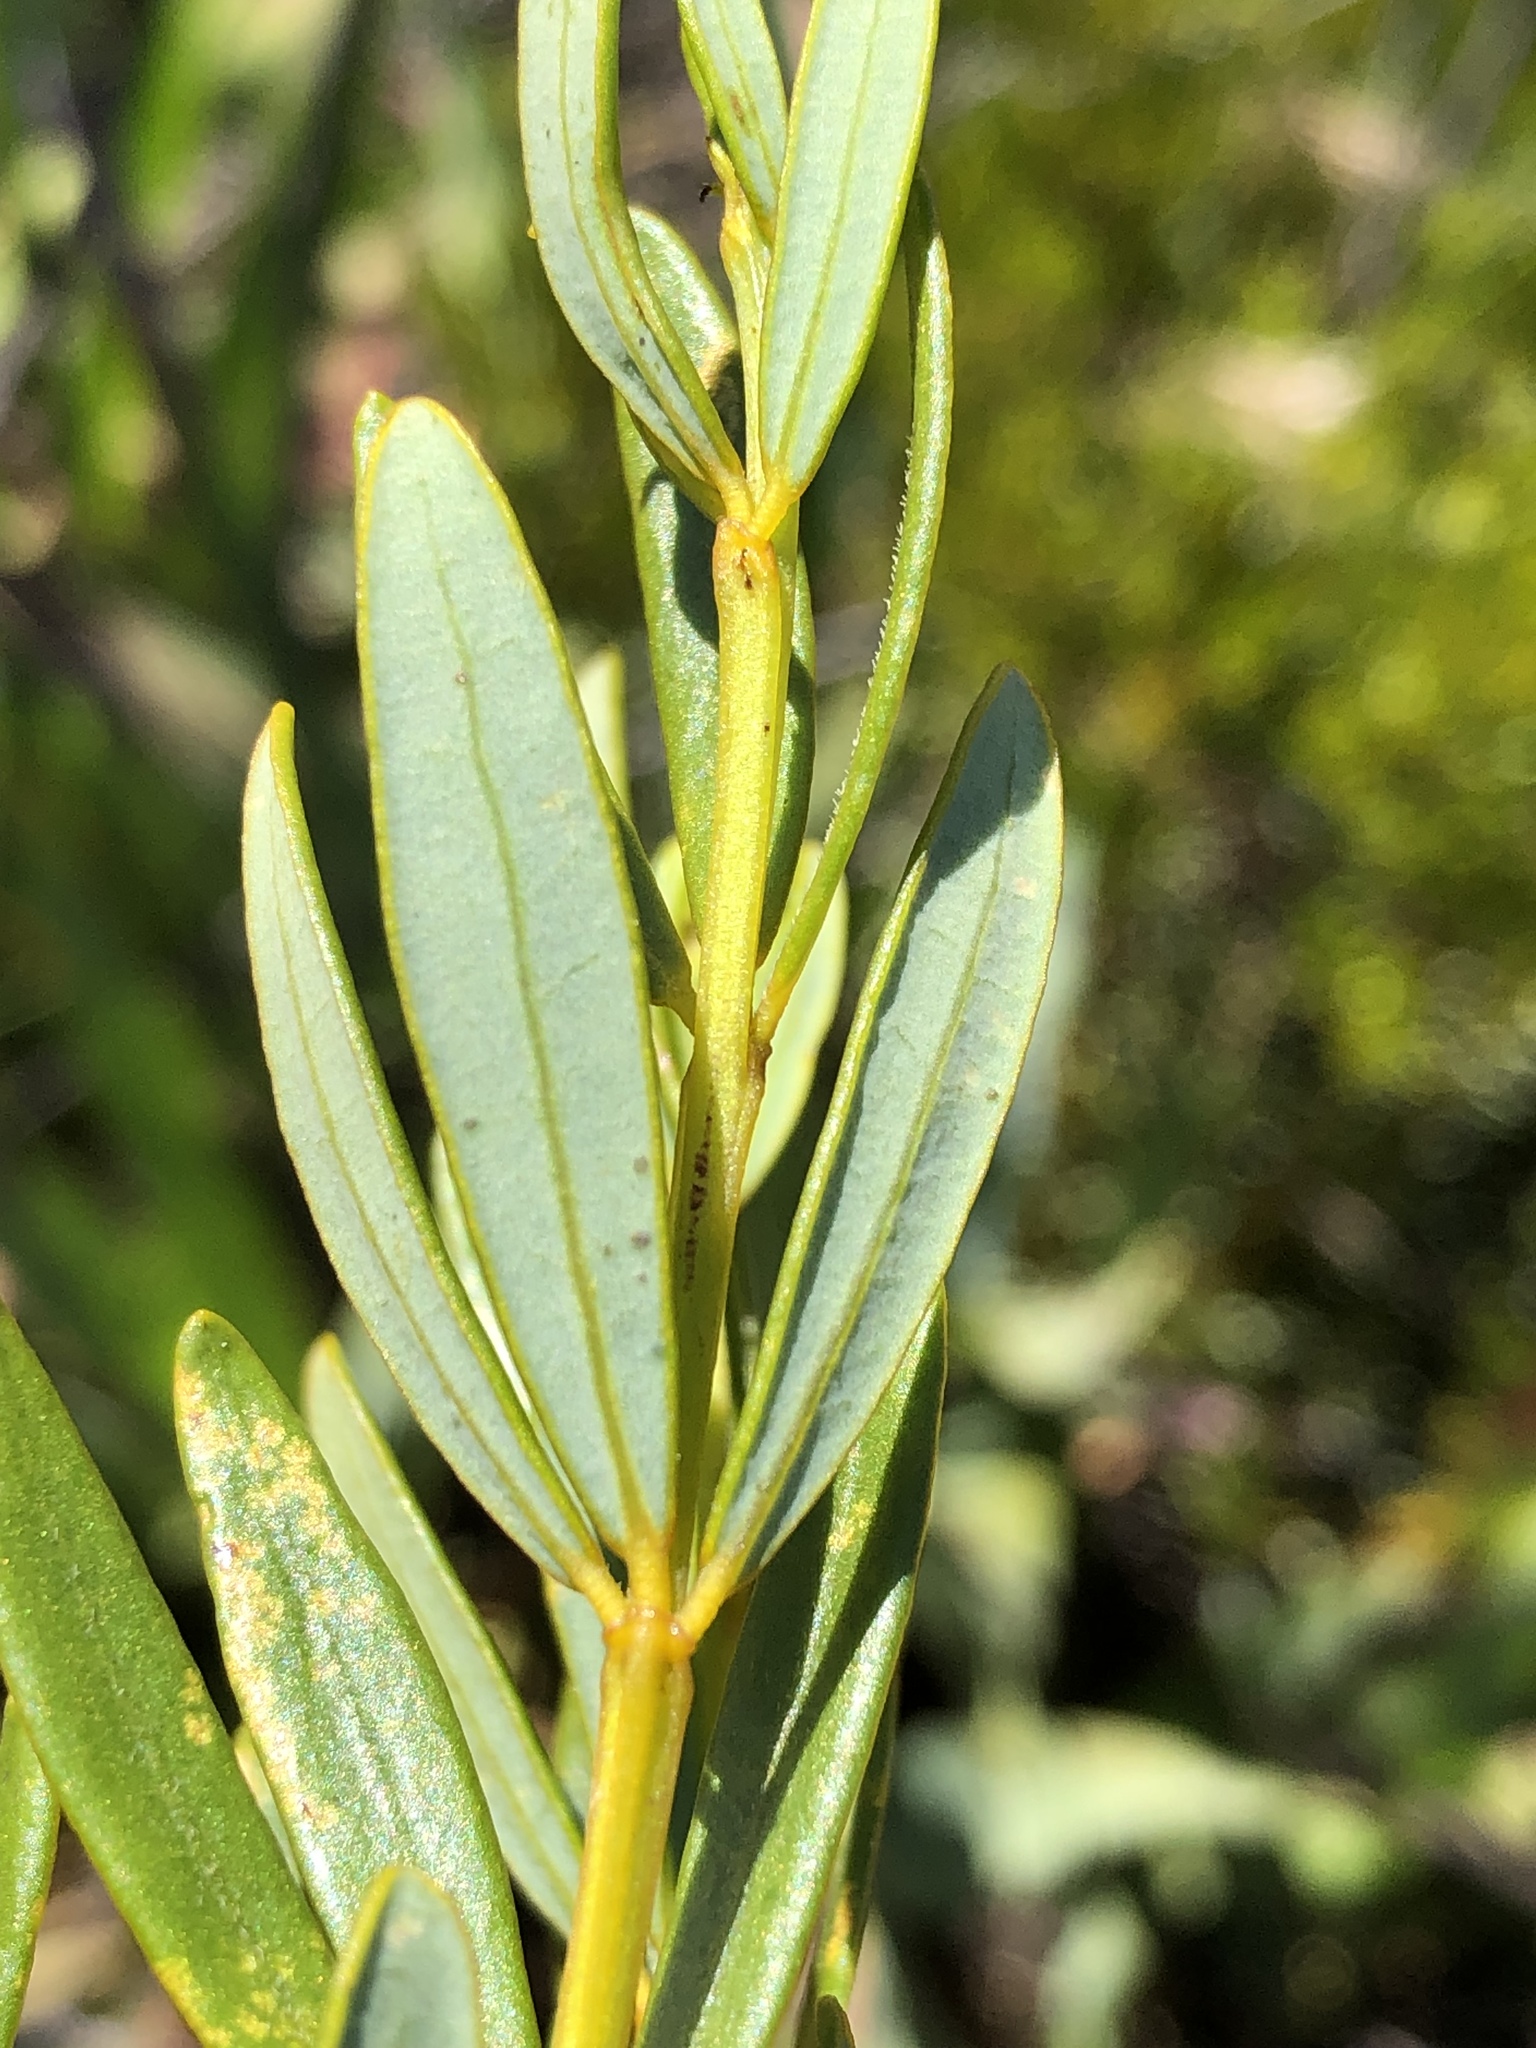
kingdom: Plantae
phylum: Tracheophyta
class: Magnoliopsida
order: Fabales
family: Fabaceae
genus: Cyclopia
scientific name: Cyclopia subternata
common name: Honeybush tea
